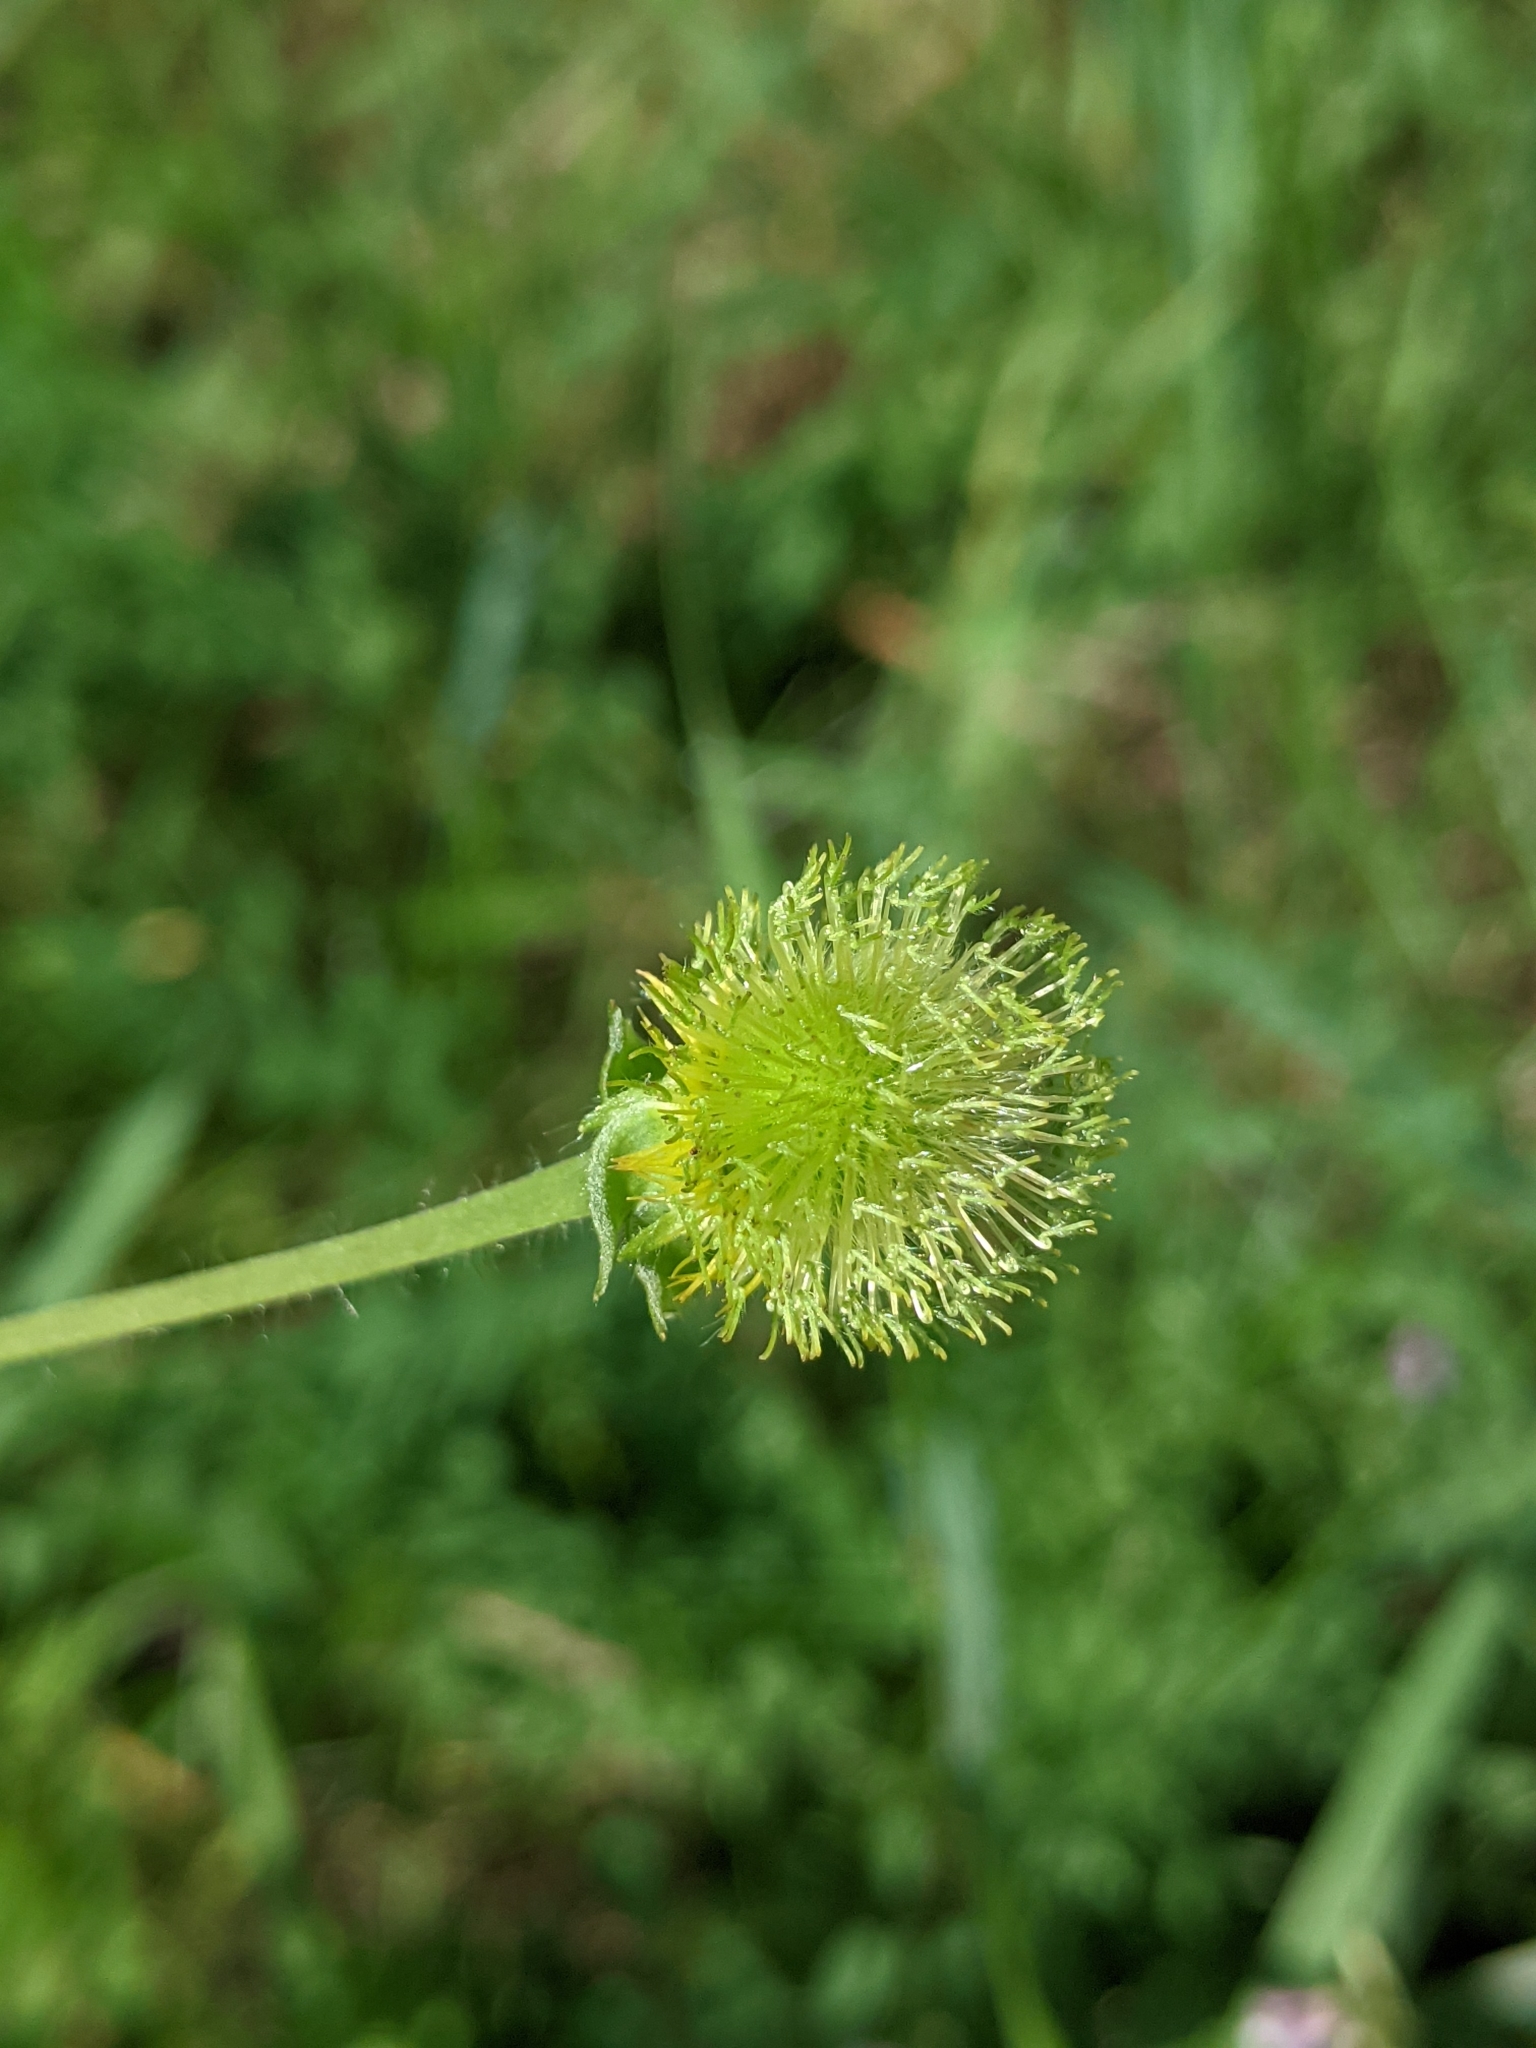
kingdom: Plantae
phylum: Tracheophyta
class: Magnoliopsida
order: Rosales
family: Rosaceae
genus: Geum
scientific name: Geum aleppicum
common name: Yellow avens
